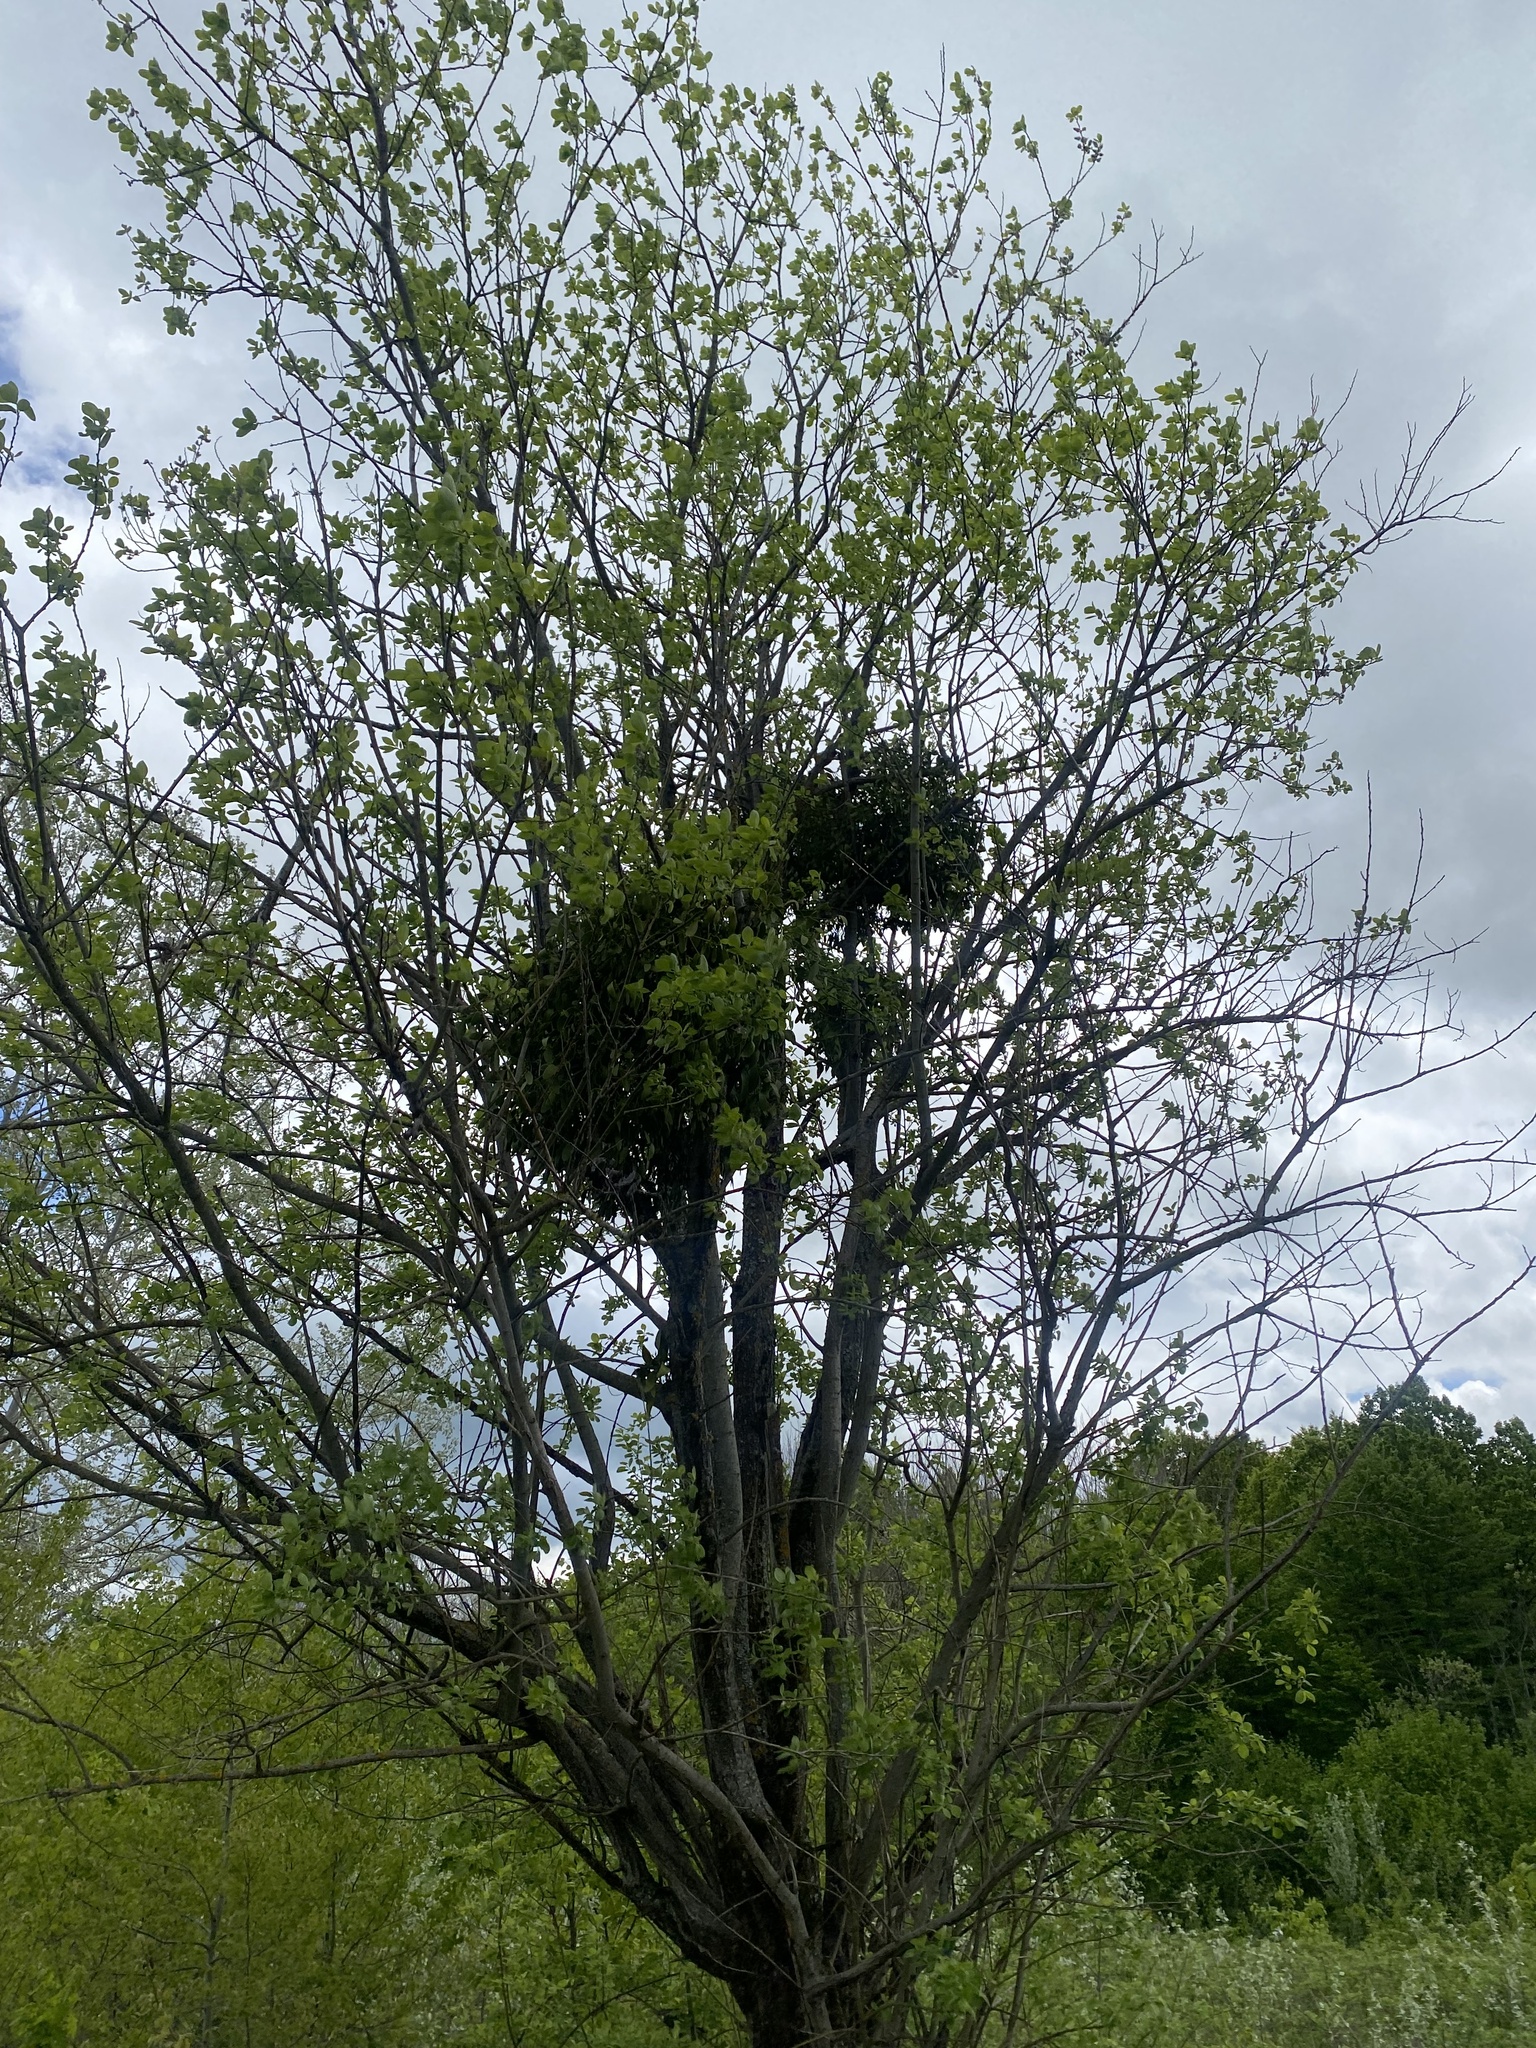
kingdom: Plantae
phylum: Tracheophyta
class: Magnoliopsida
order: Santalales
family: Viscaceae
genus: Viscum
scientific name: Viscum album
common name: Mistletoe
